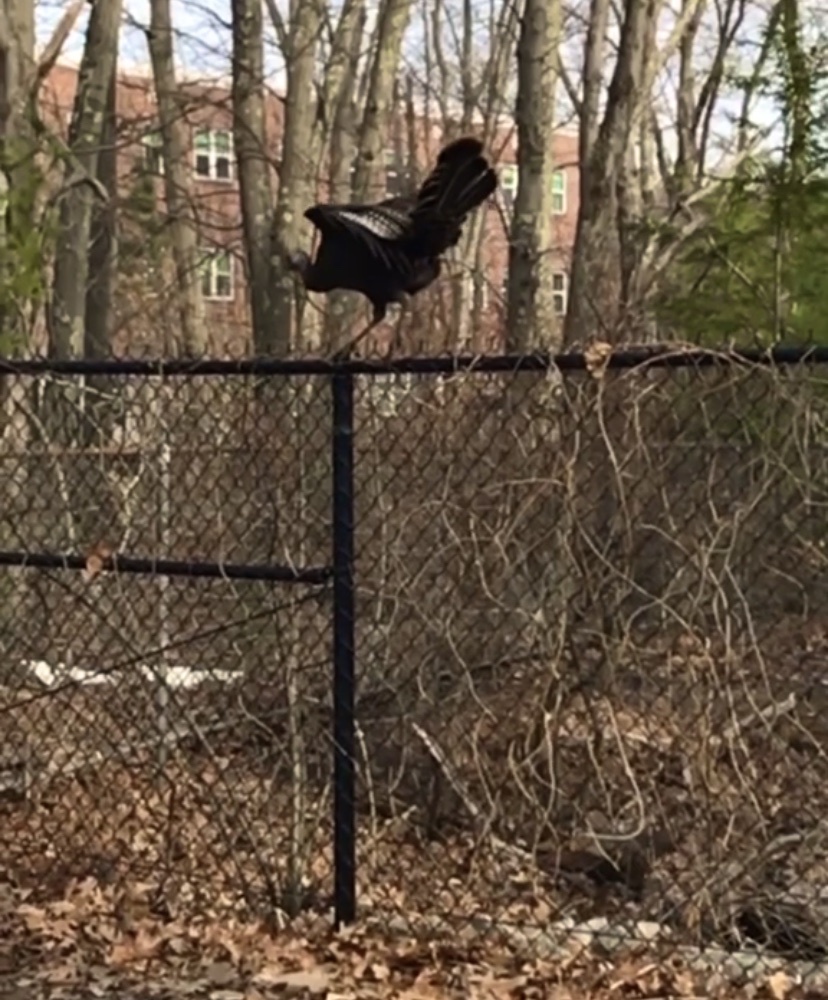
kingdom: Animalia
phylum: Chordata
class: Aves
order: Galliformes
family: Phasianidae
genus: Meleagris
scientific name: Meleagris gallopavo
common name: Wild turkey
